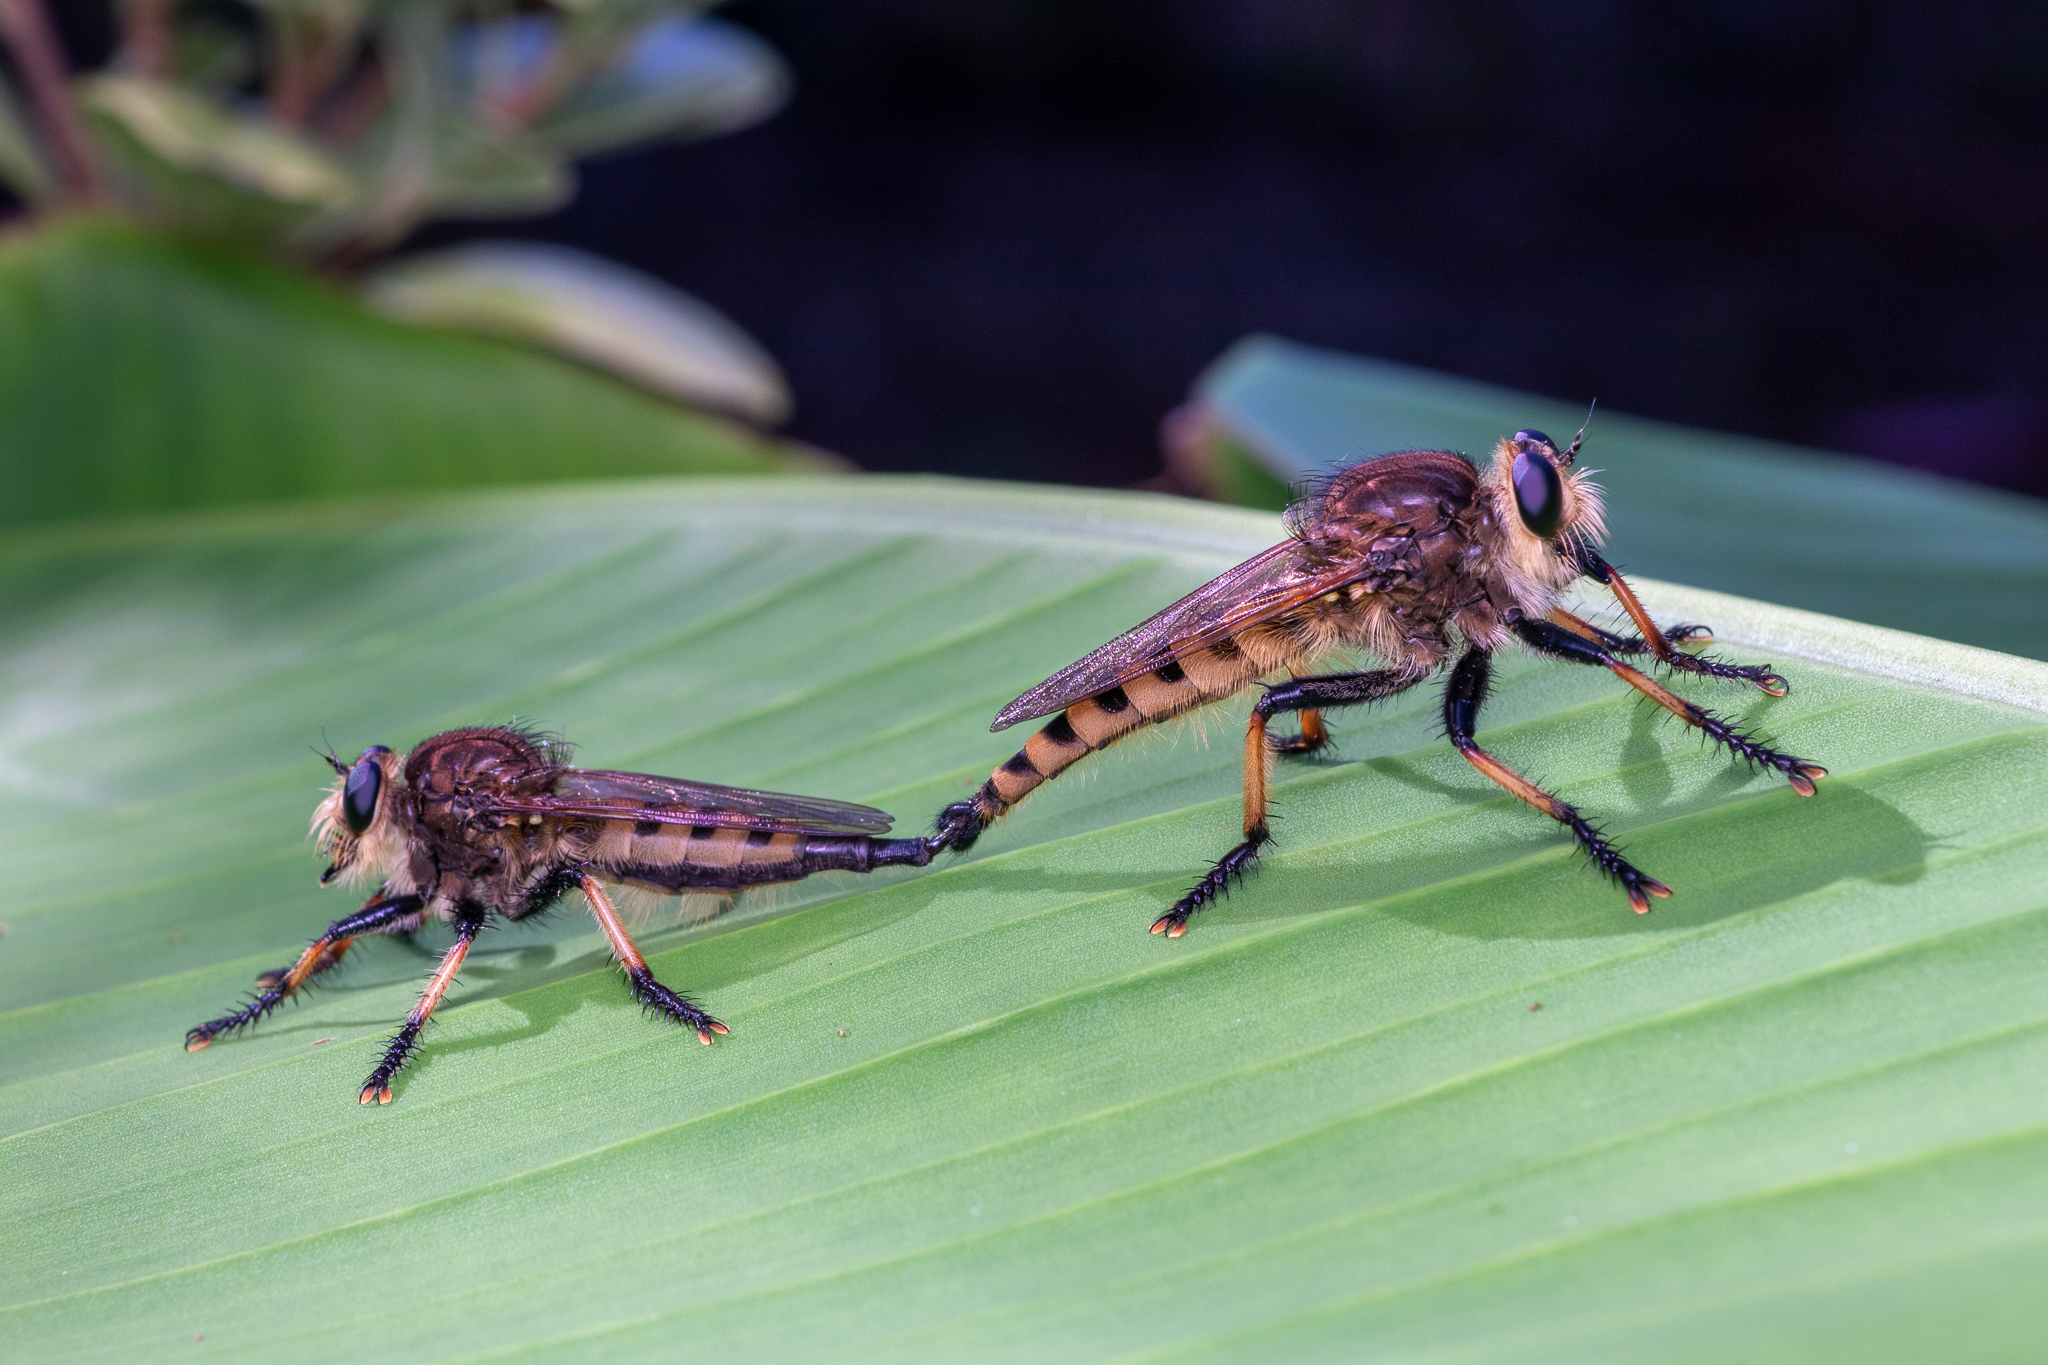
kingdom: Animalia
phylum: Arthropoda
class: Insecta
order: Diptera
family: Asilidae
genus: Promachus
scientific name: Promachus rufipes
